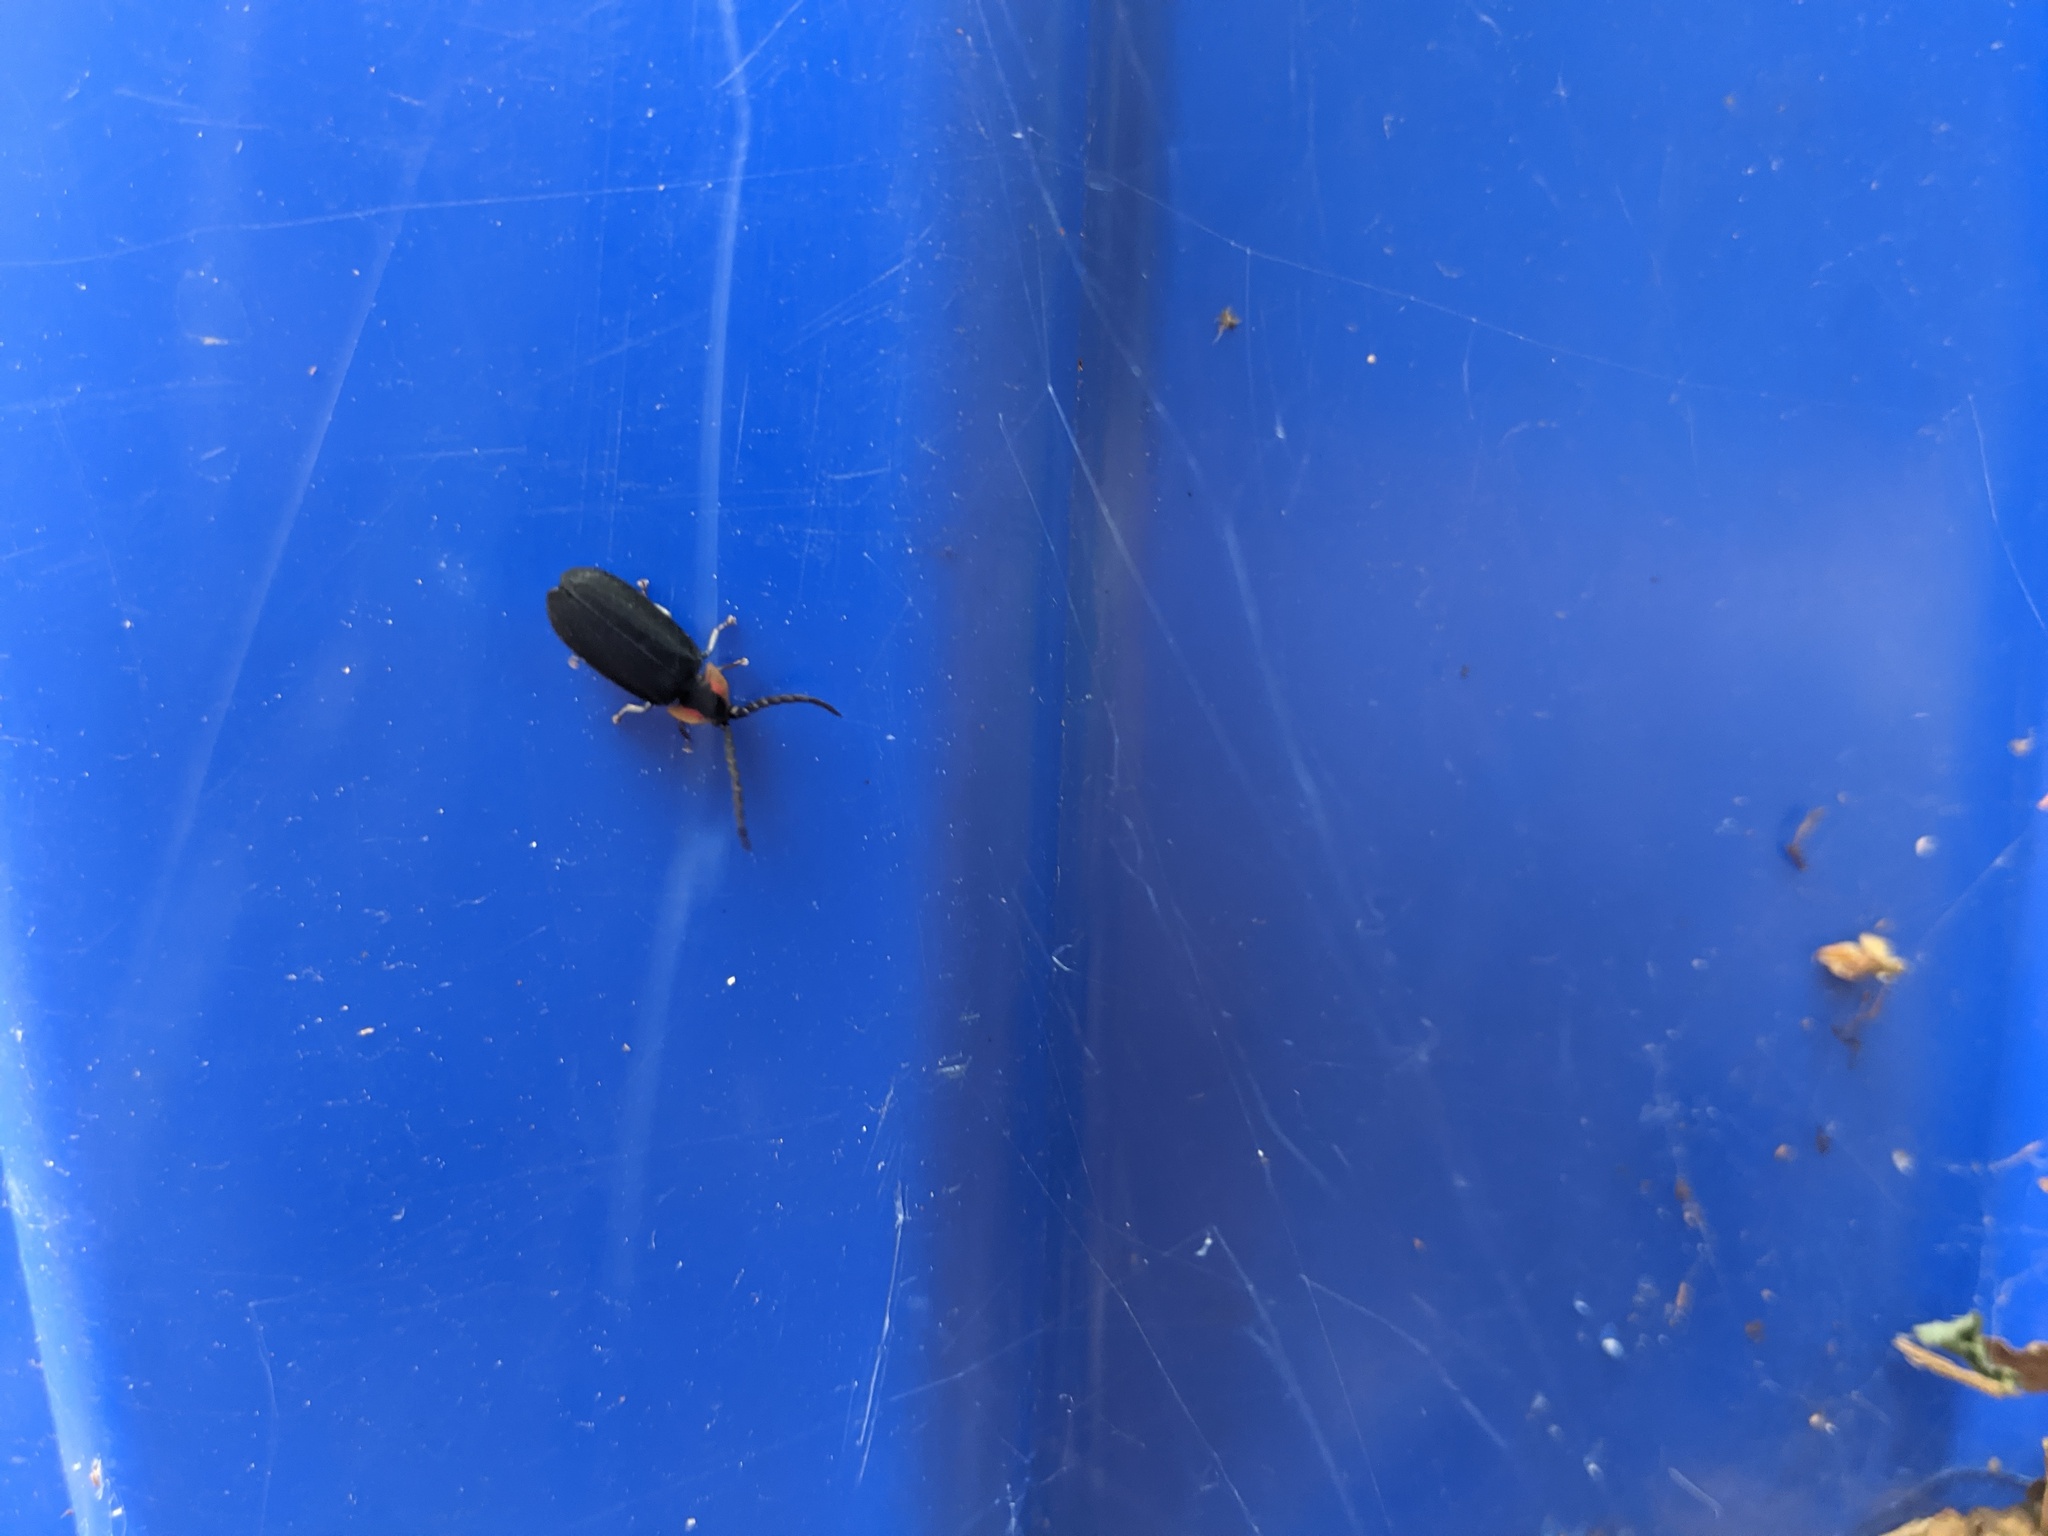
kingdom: Animalia
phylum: Arthropoda
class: Insecta
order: Coleoptera
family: Lampyridae
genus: Lucidota
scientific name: Lucidota atra
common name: Black firefly
